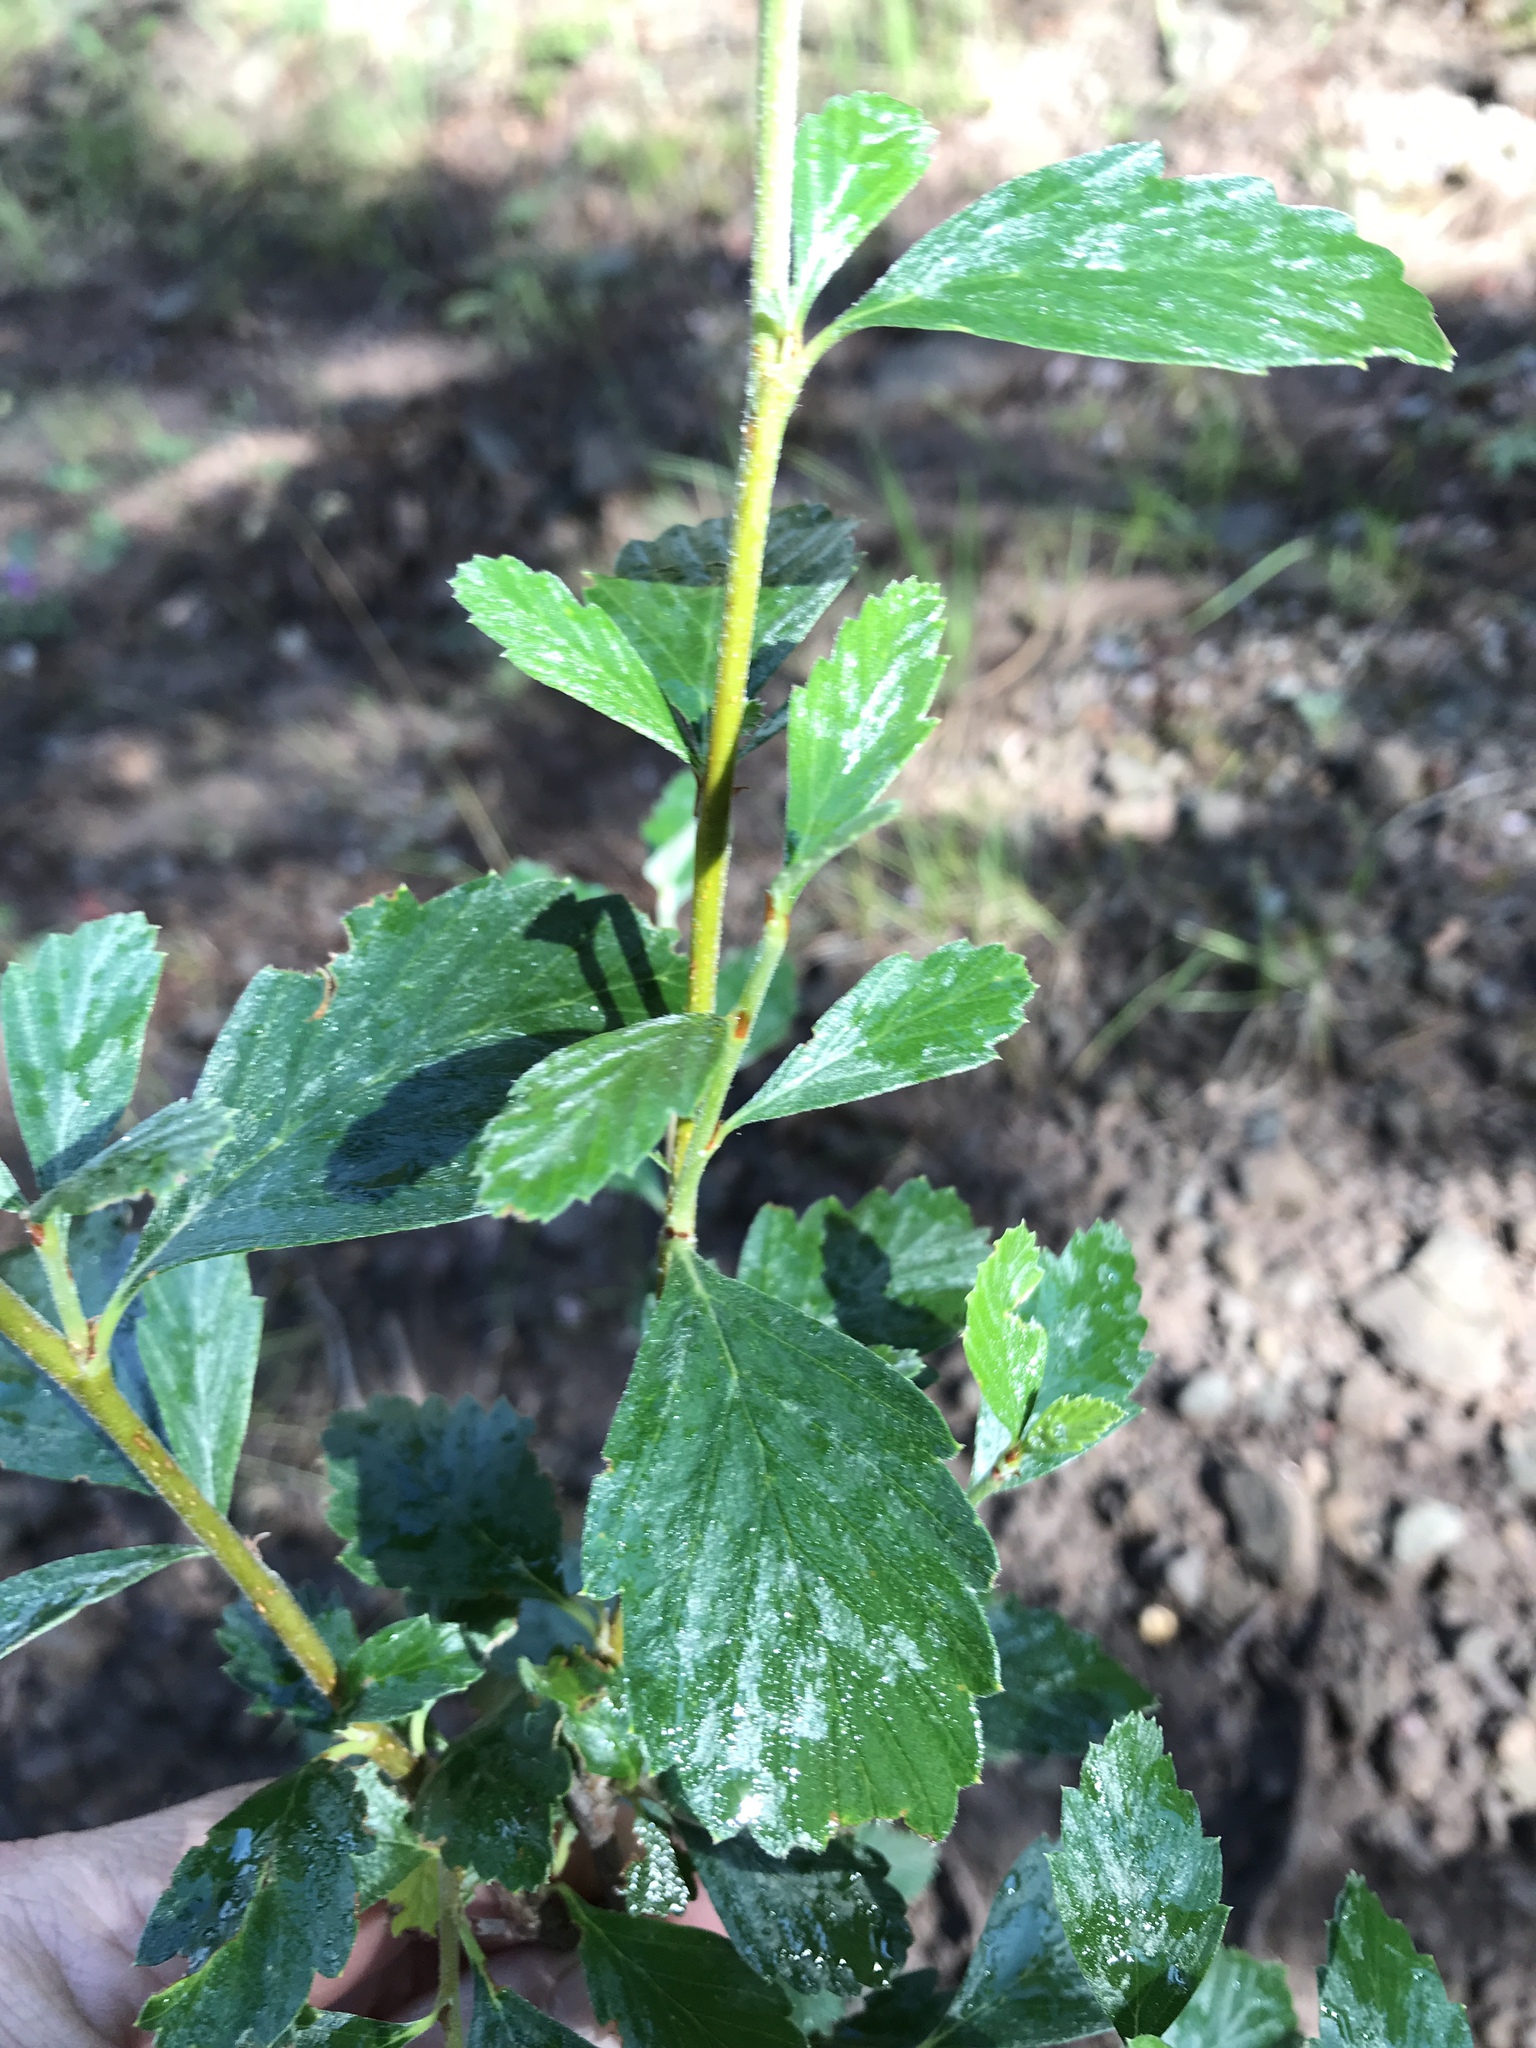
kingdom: Plantae
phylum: Tracheophyta
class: Magnoliopsida
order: Rosales
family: Rosaceae
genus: Cercocarpus
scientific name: Cercocarpus montanus
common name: Alder-leaf cercocarpus
